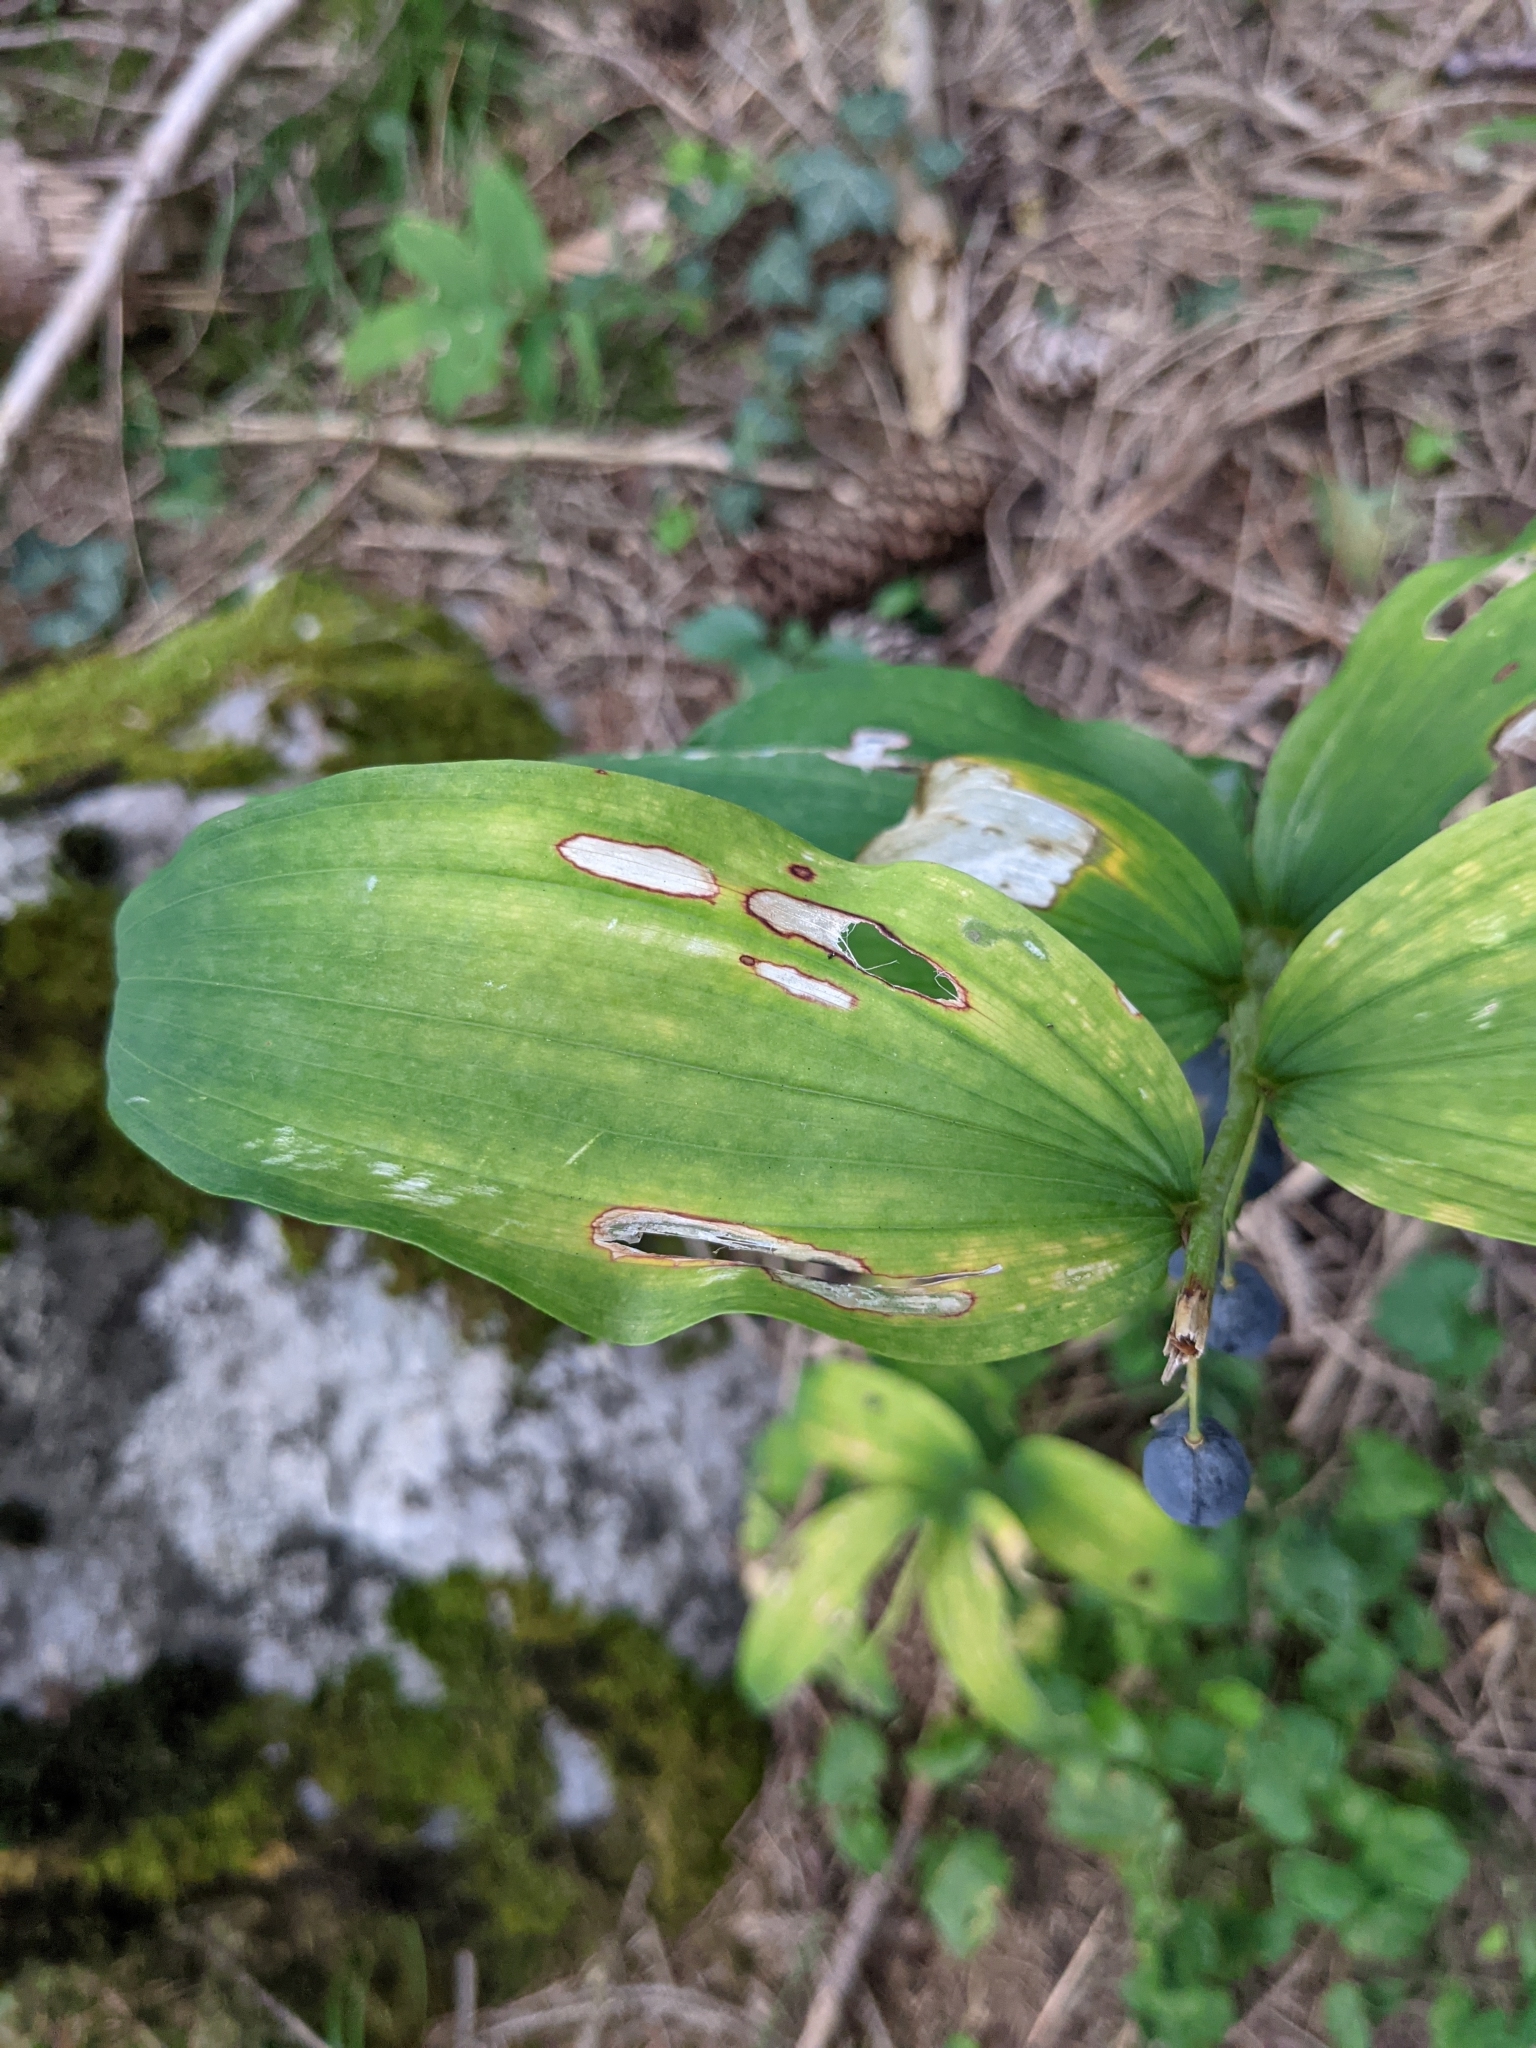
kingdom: Plantae
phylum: Tracheophyta
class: Liliopsida
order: Asparagales
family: Asparagaceae
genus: Polygonatum
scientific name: Polygonatum multiflorum
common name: Solomon's-seal
